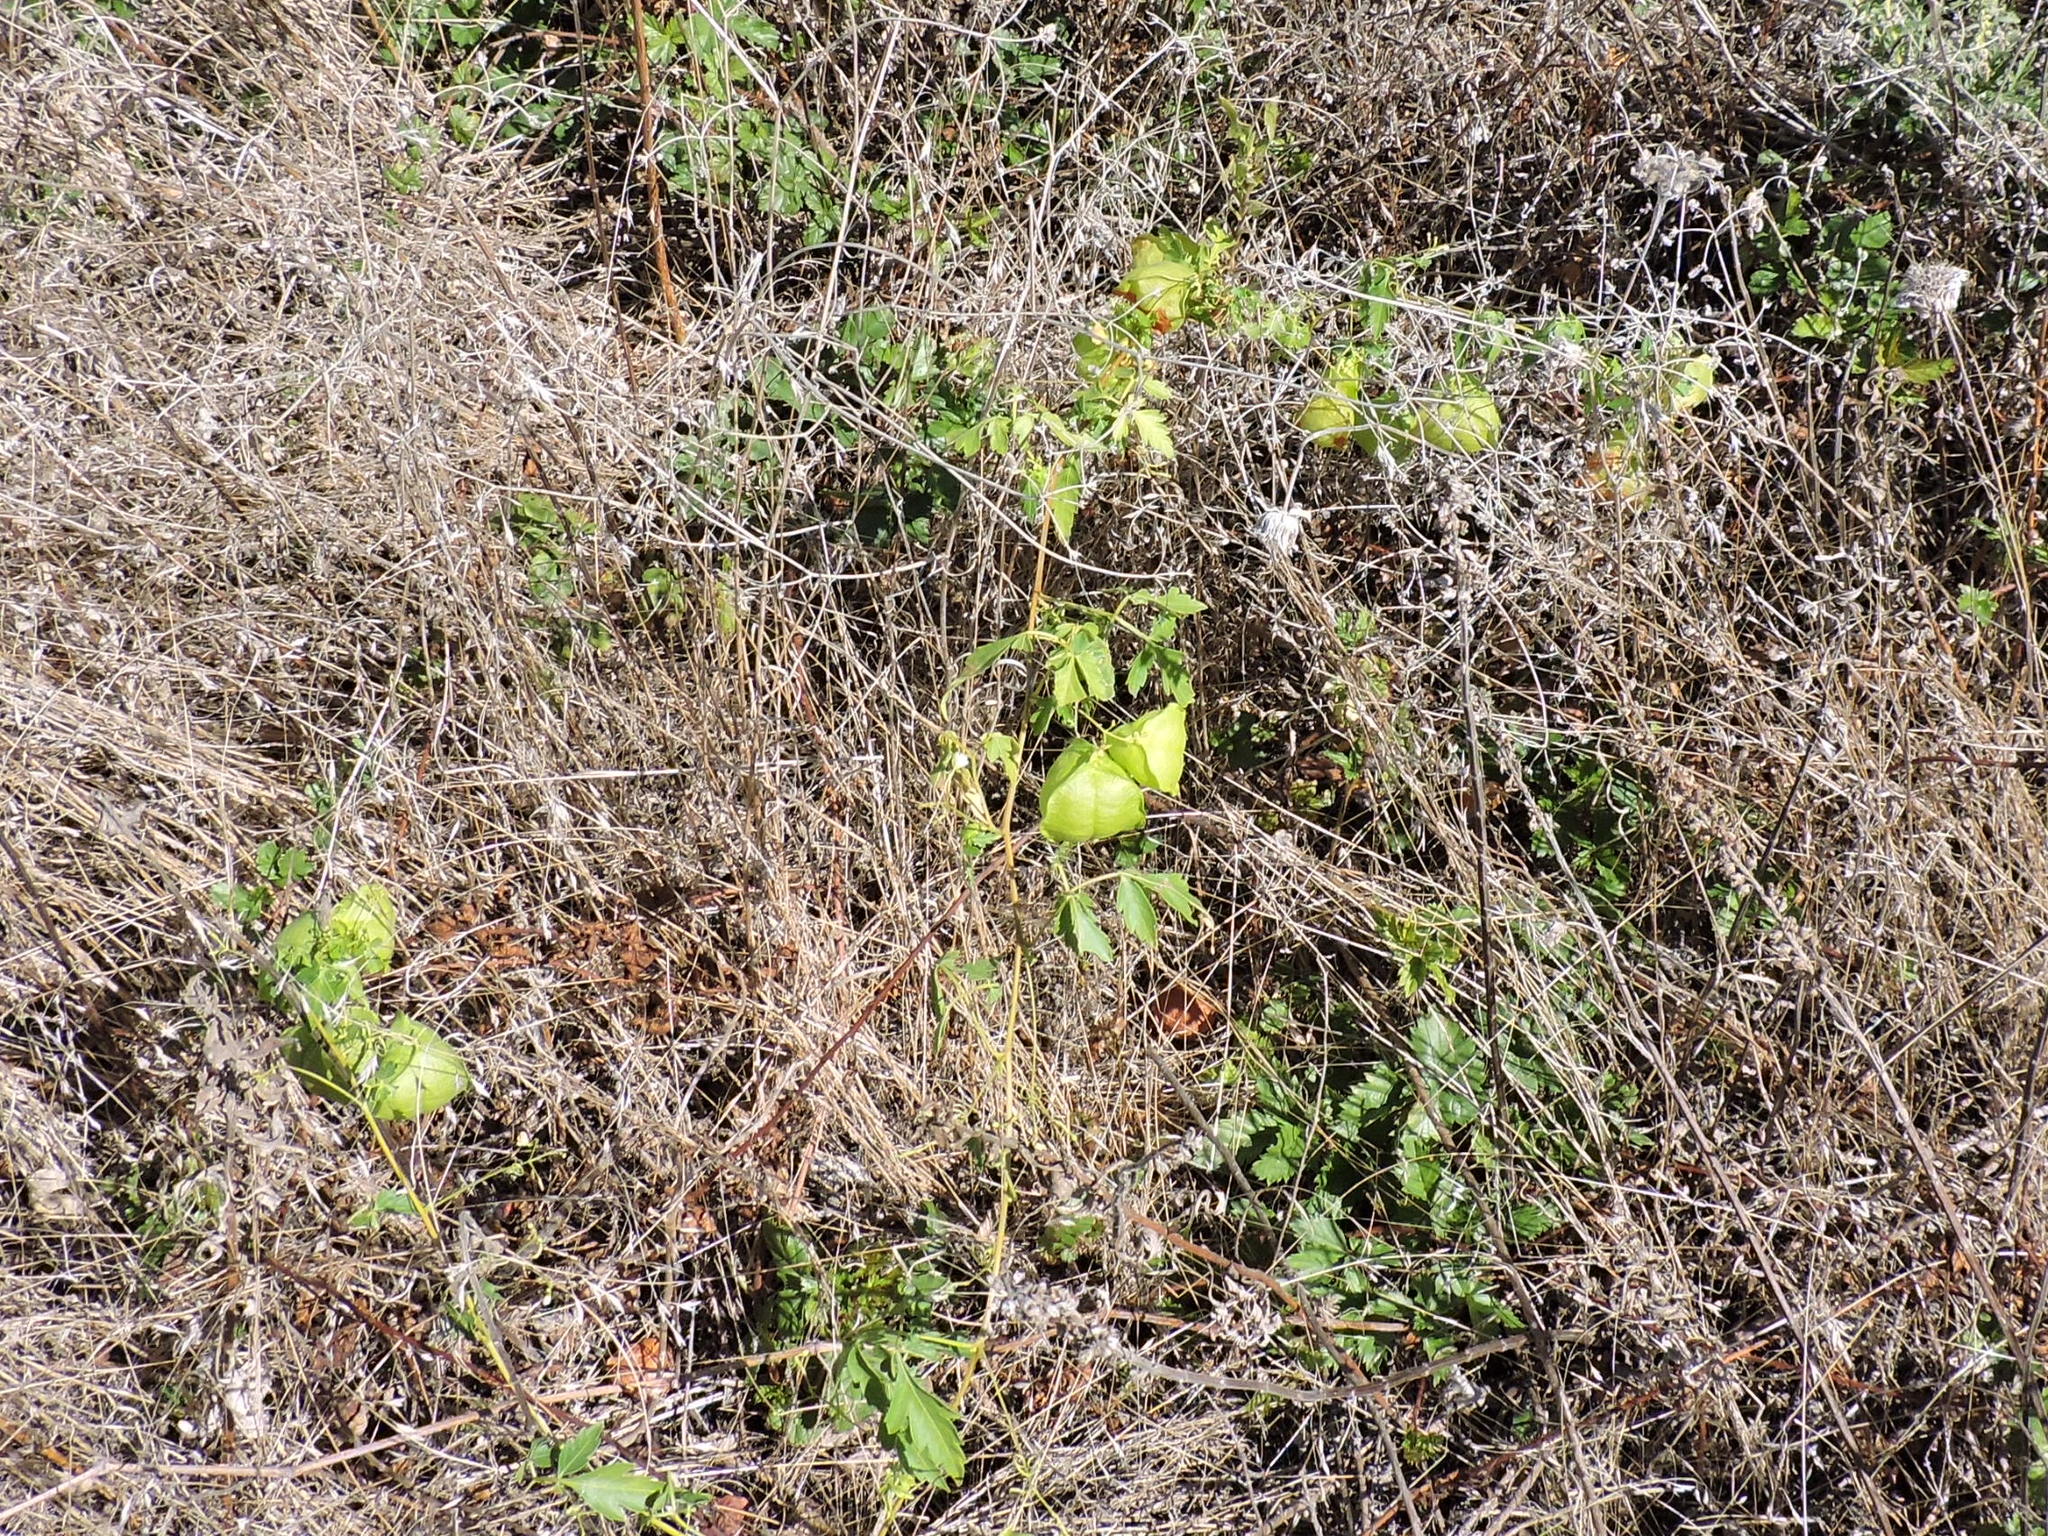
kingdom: Plantae
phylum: Tracheophyta
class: Magnoliopsida
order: Sapindales
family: Sapindaceae
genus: Cardiospermum
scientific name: Cardiospermum halicacabum
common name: Balloon vine
